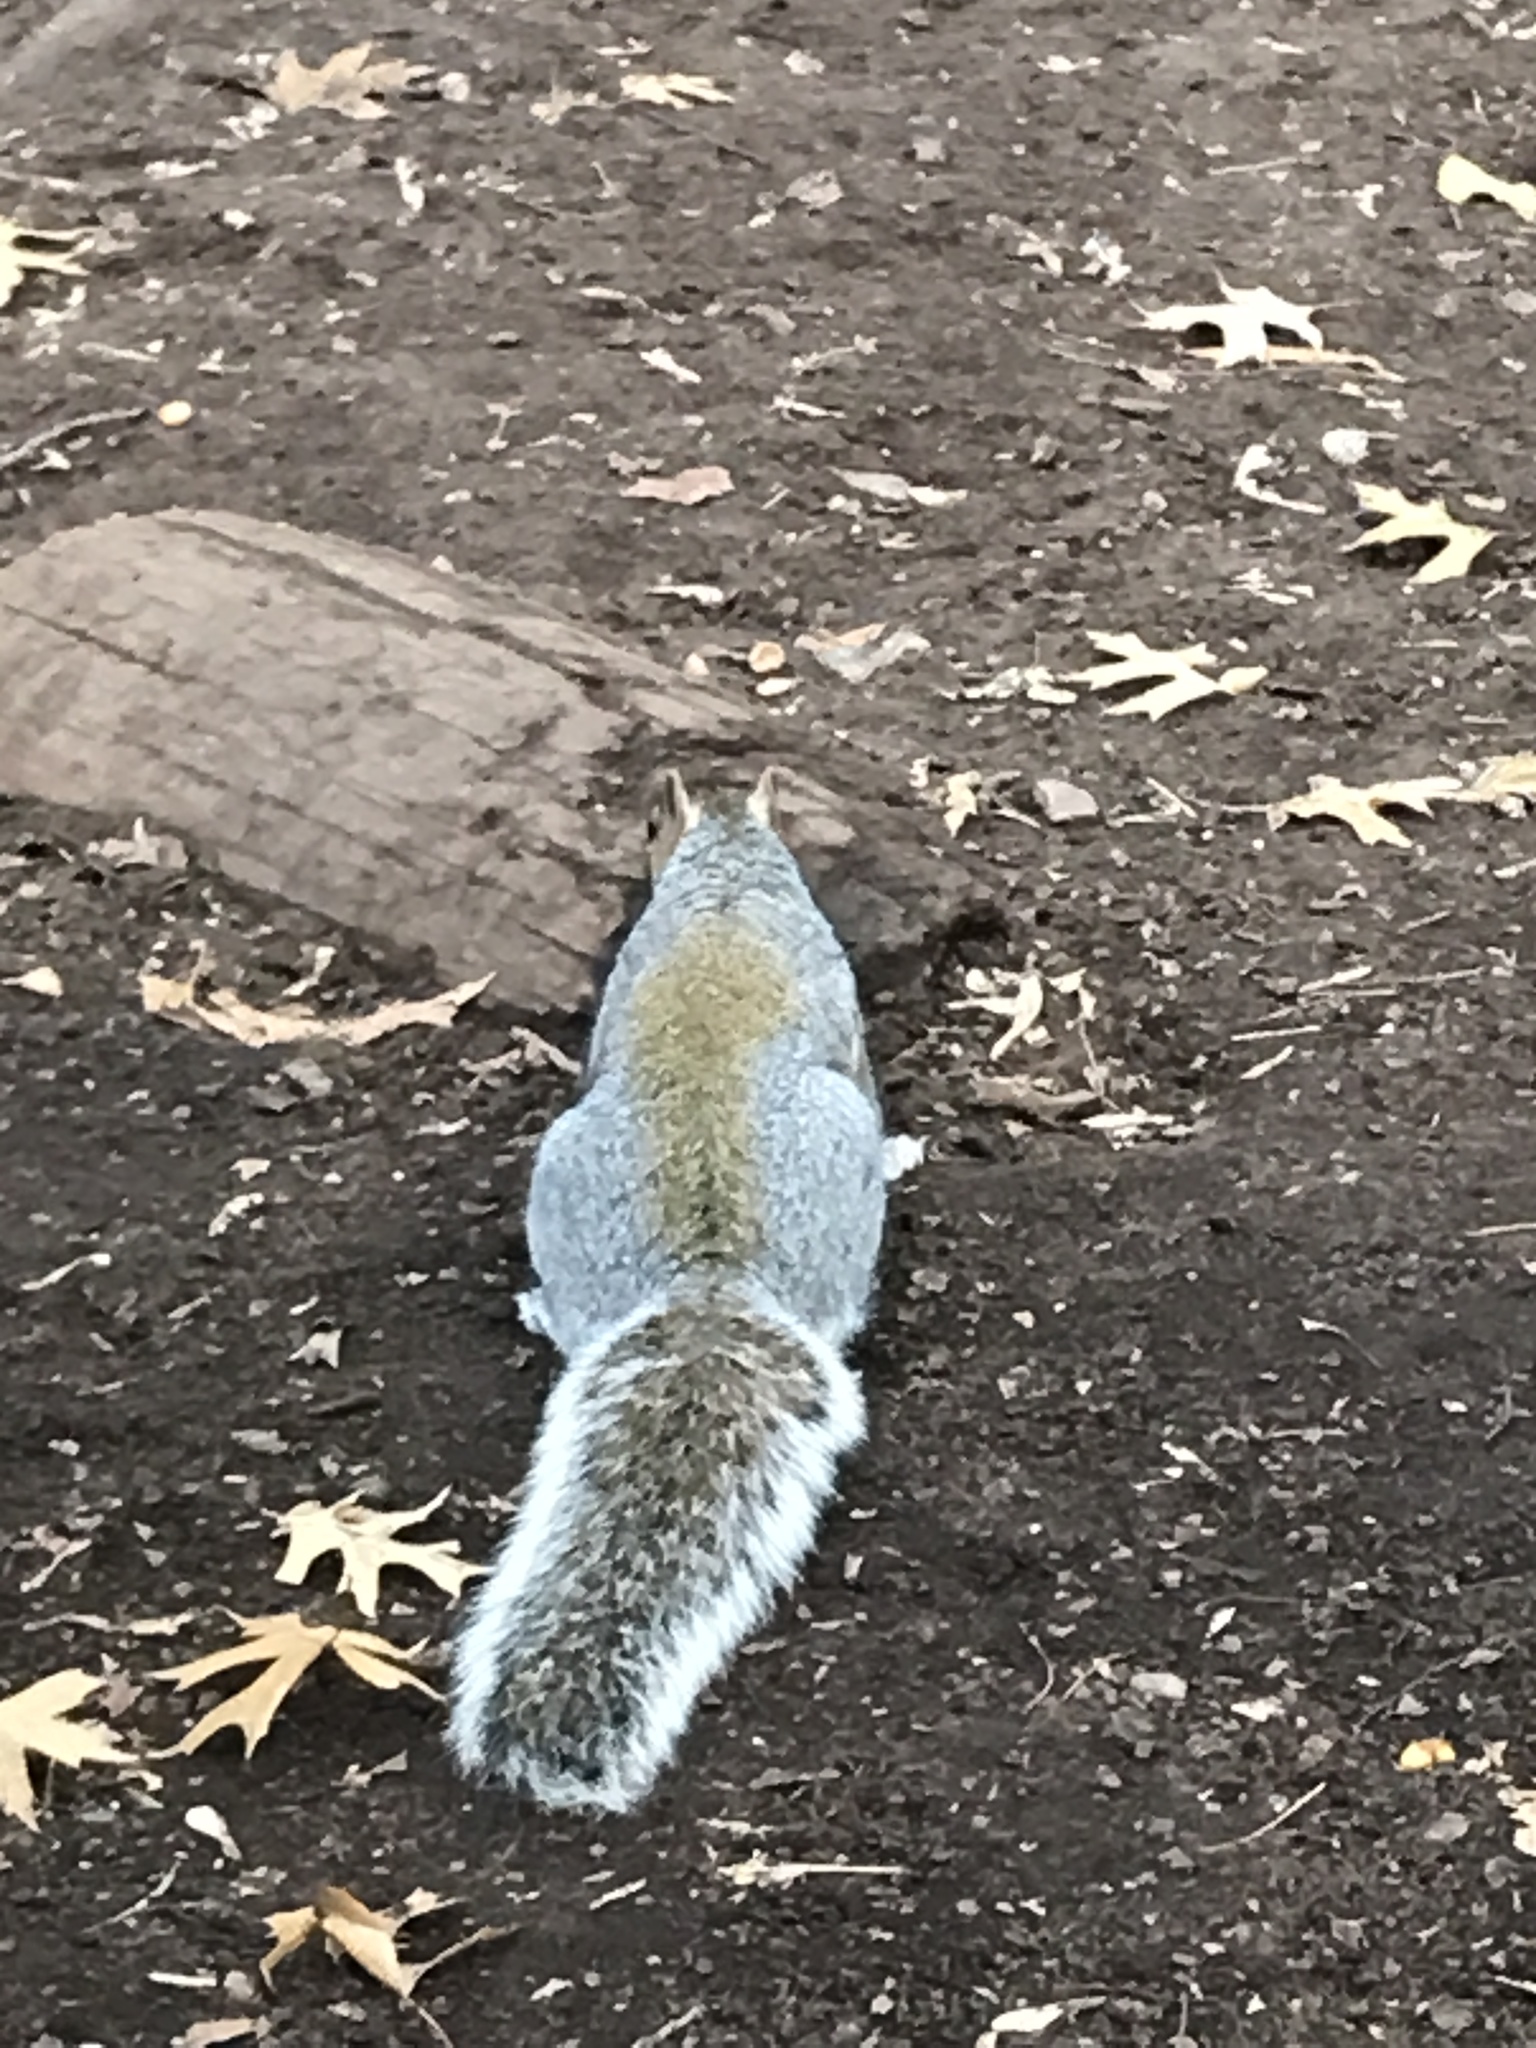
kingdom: Animalia
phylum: Chordata
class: Mammalia
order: Rodentia
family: Sciuridae
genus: Sciurus
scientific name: Sciurus carolinensis
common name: Eastern gray squirrel
